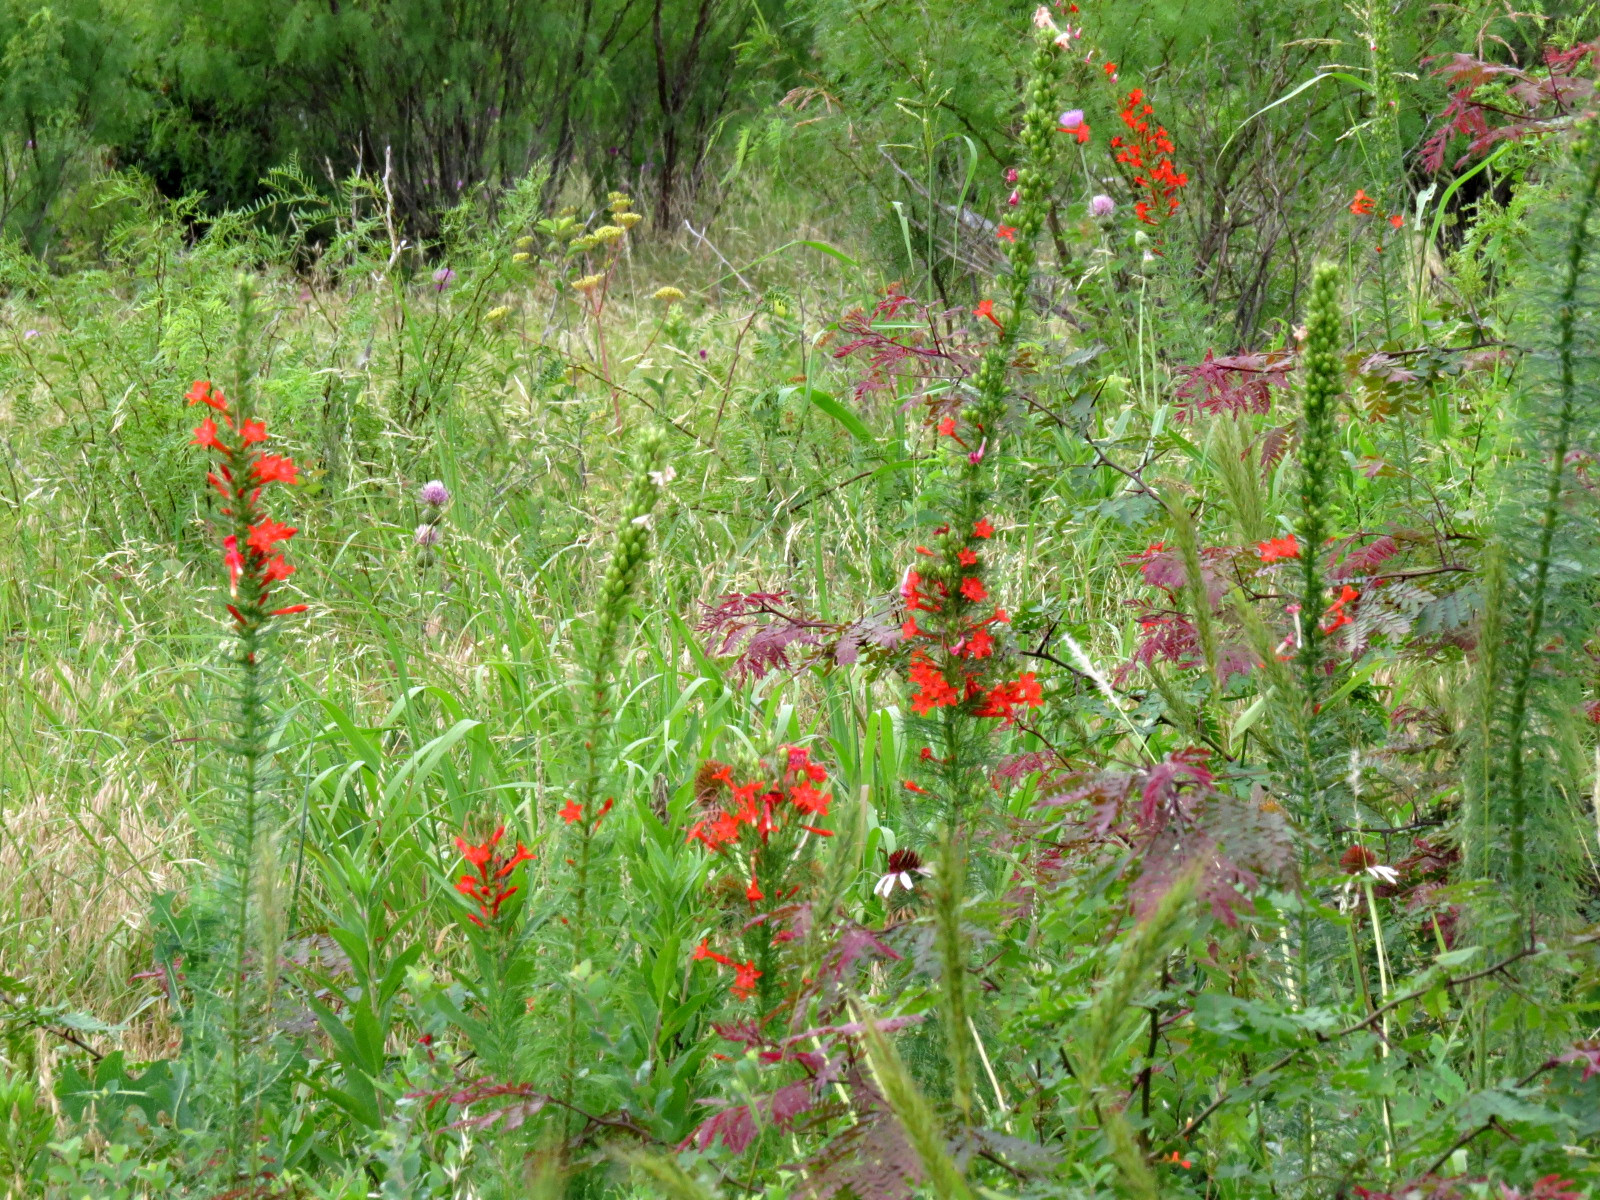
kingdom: Plantae
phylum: Tracheophyta
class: Magnoliopsida
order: Ericales
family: Polemoniaceae
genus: Ipomopsis
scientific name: Ipomopsis rubra
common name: Skyrocket
